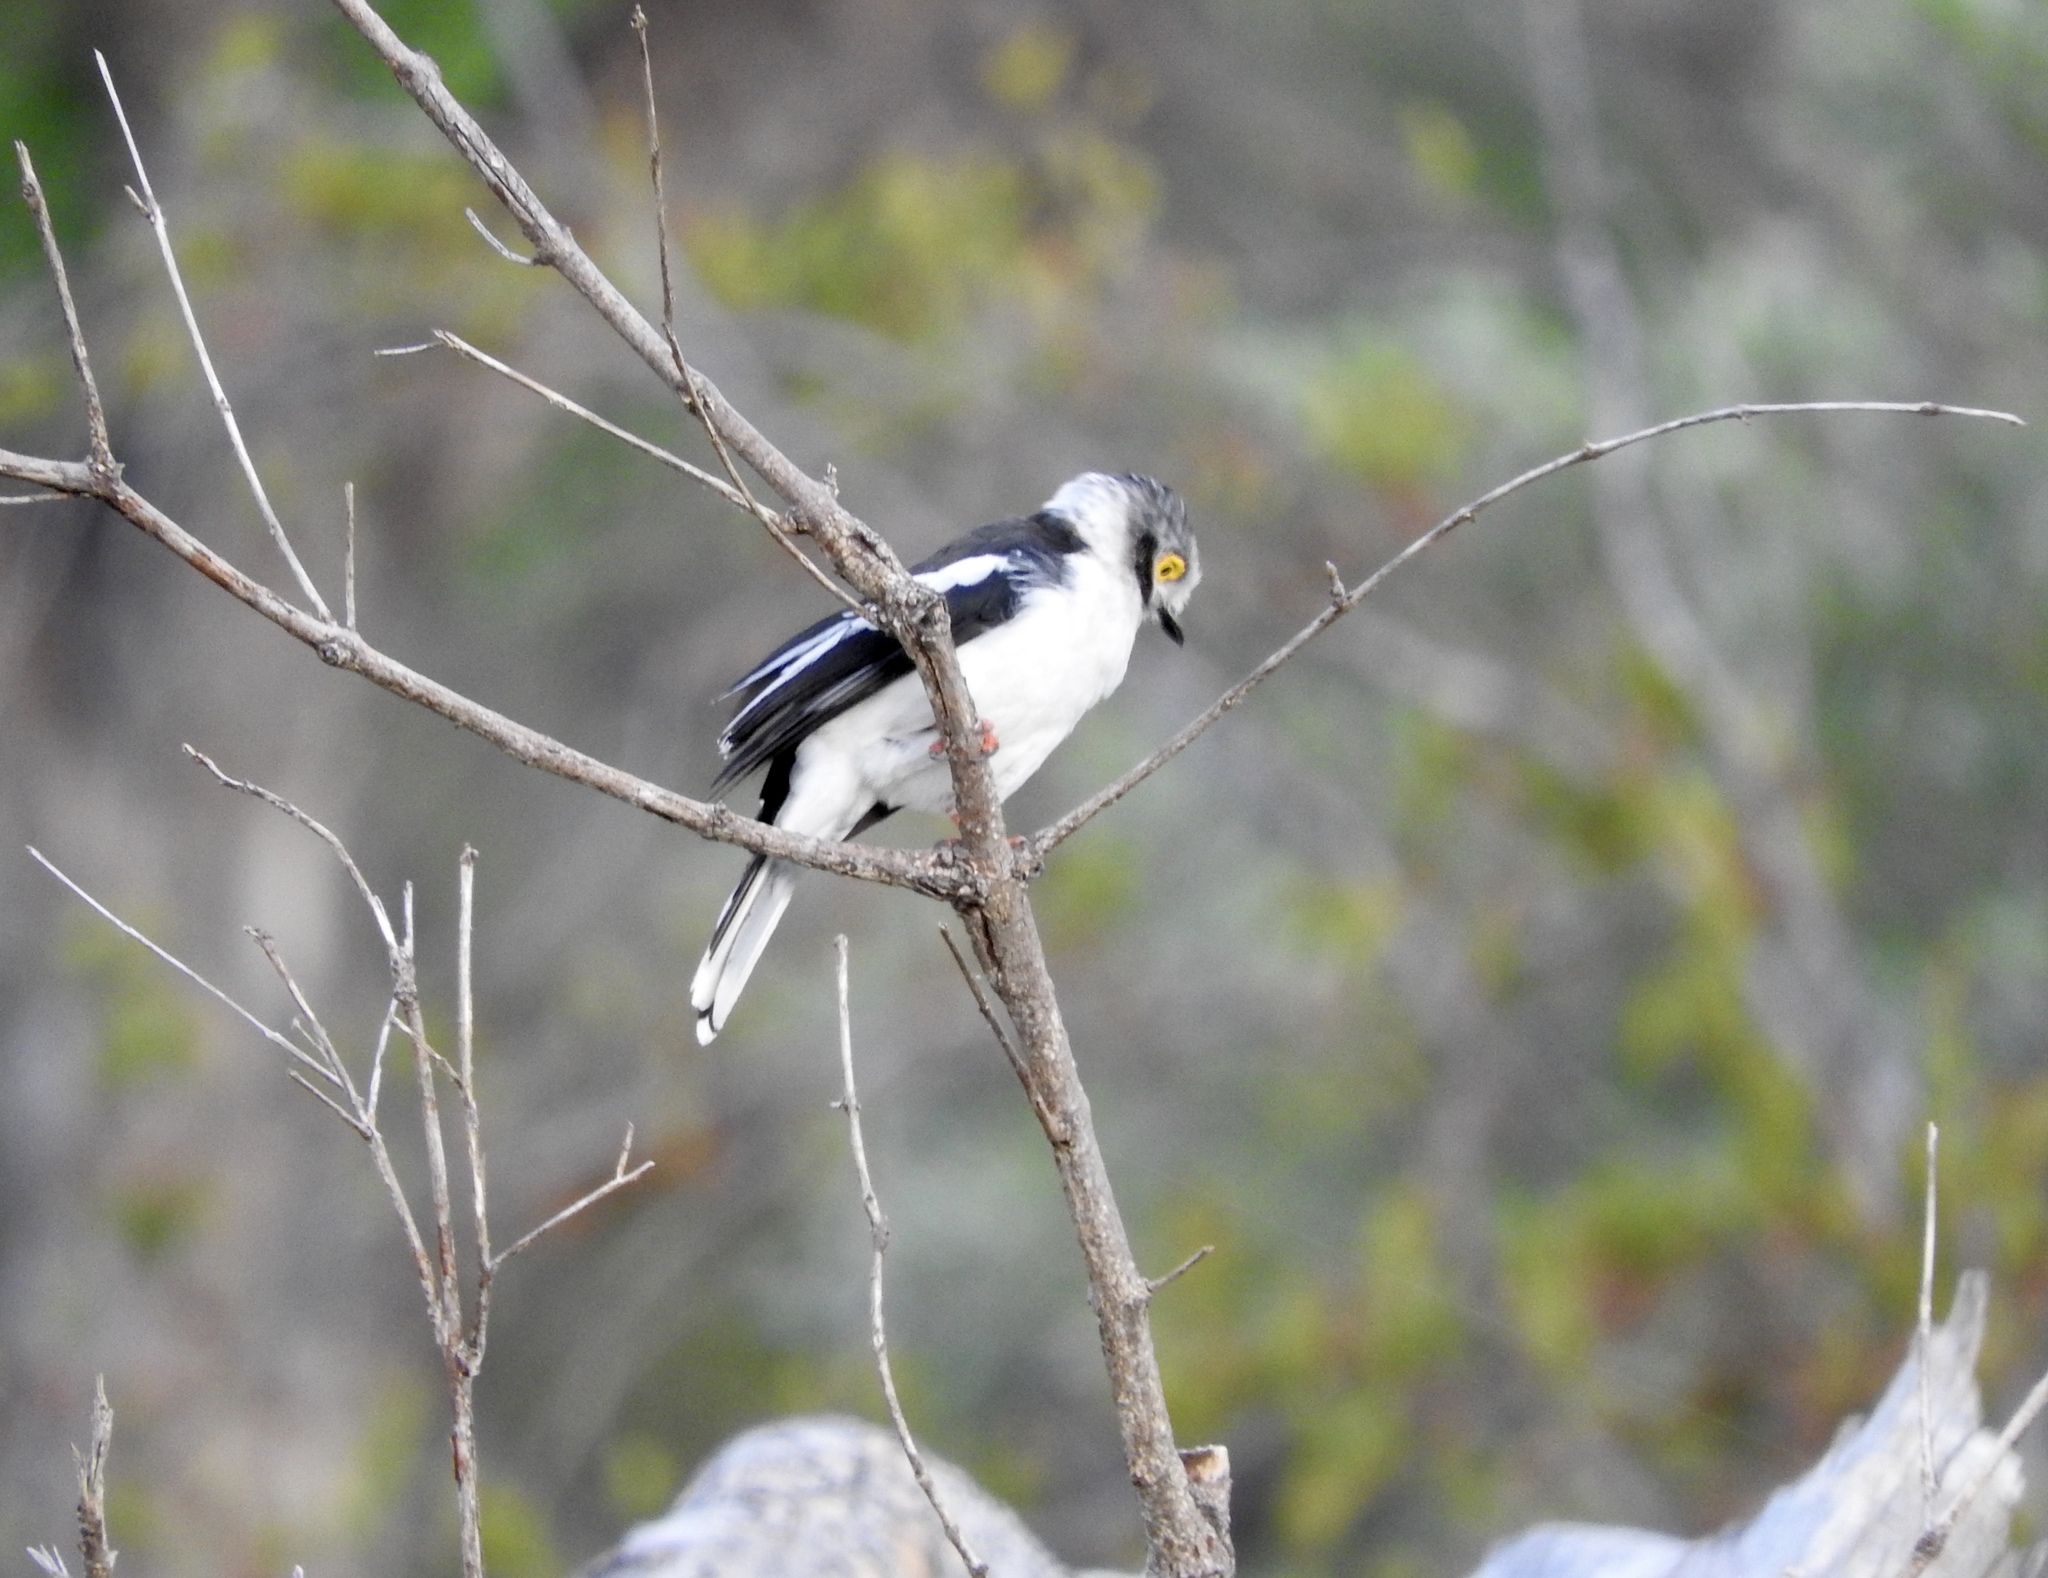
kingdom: Animalia
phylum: Chordata
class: Aves
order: Passeriformes
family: Prionopidae
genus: Prionops
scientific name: Prionops plumatus
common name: White-crested helmetshrike
